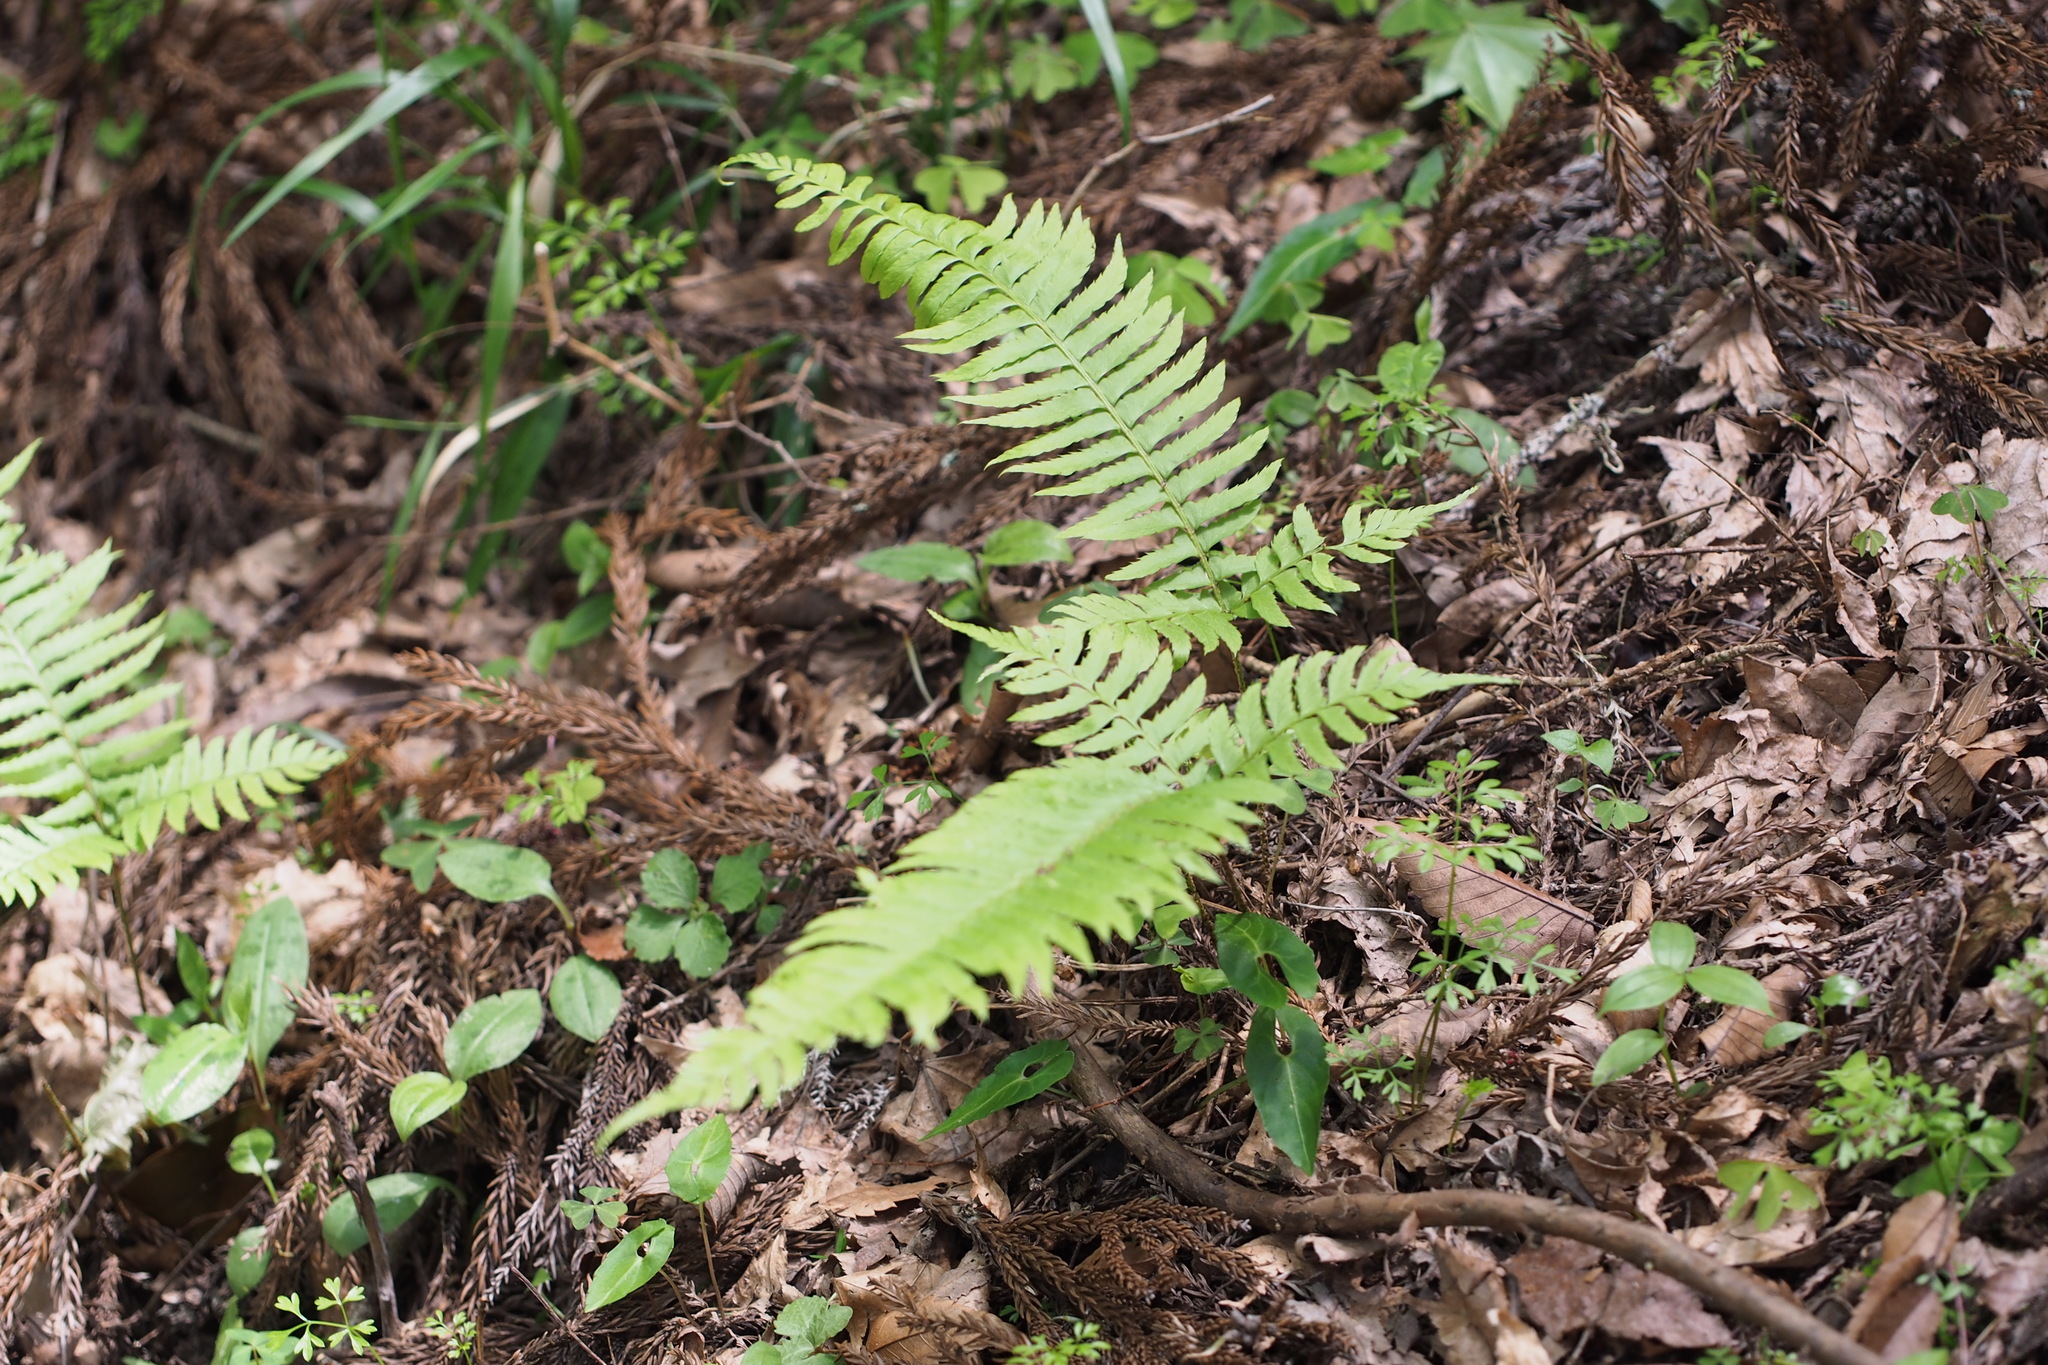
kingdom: Plantae
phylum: Tracheophyta
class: Polypodiopsida
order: Polypodiales
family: Dryopteridaceae
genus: Polystichum
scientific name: Polystichum tripteron
